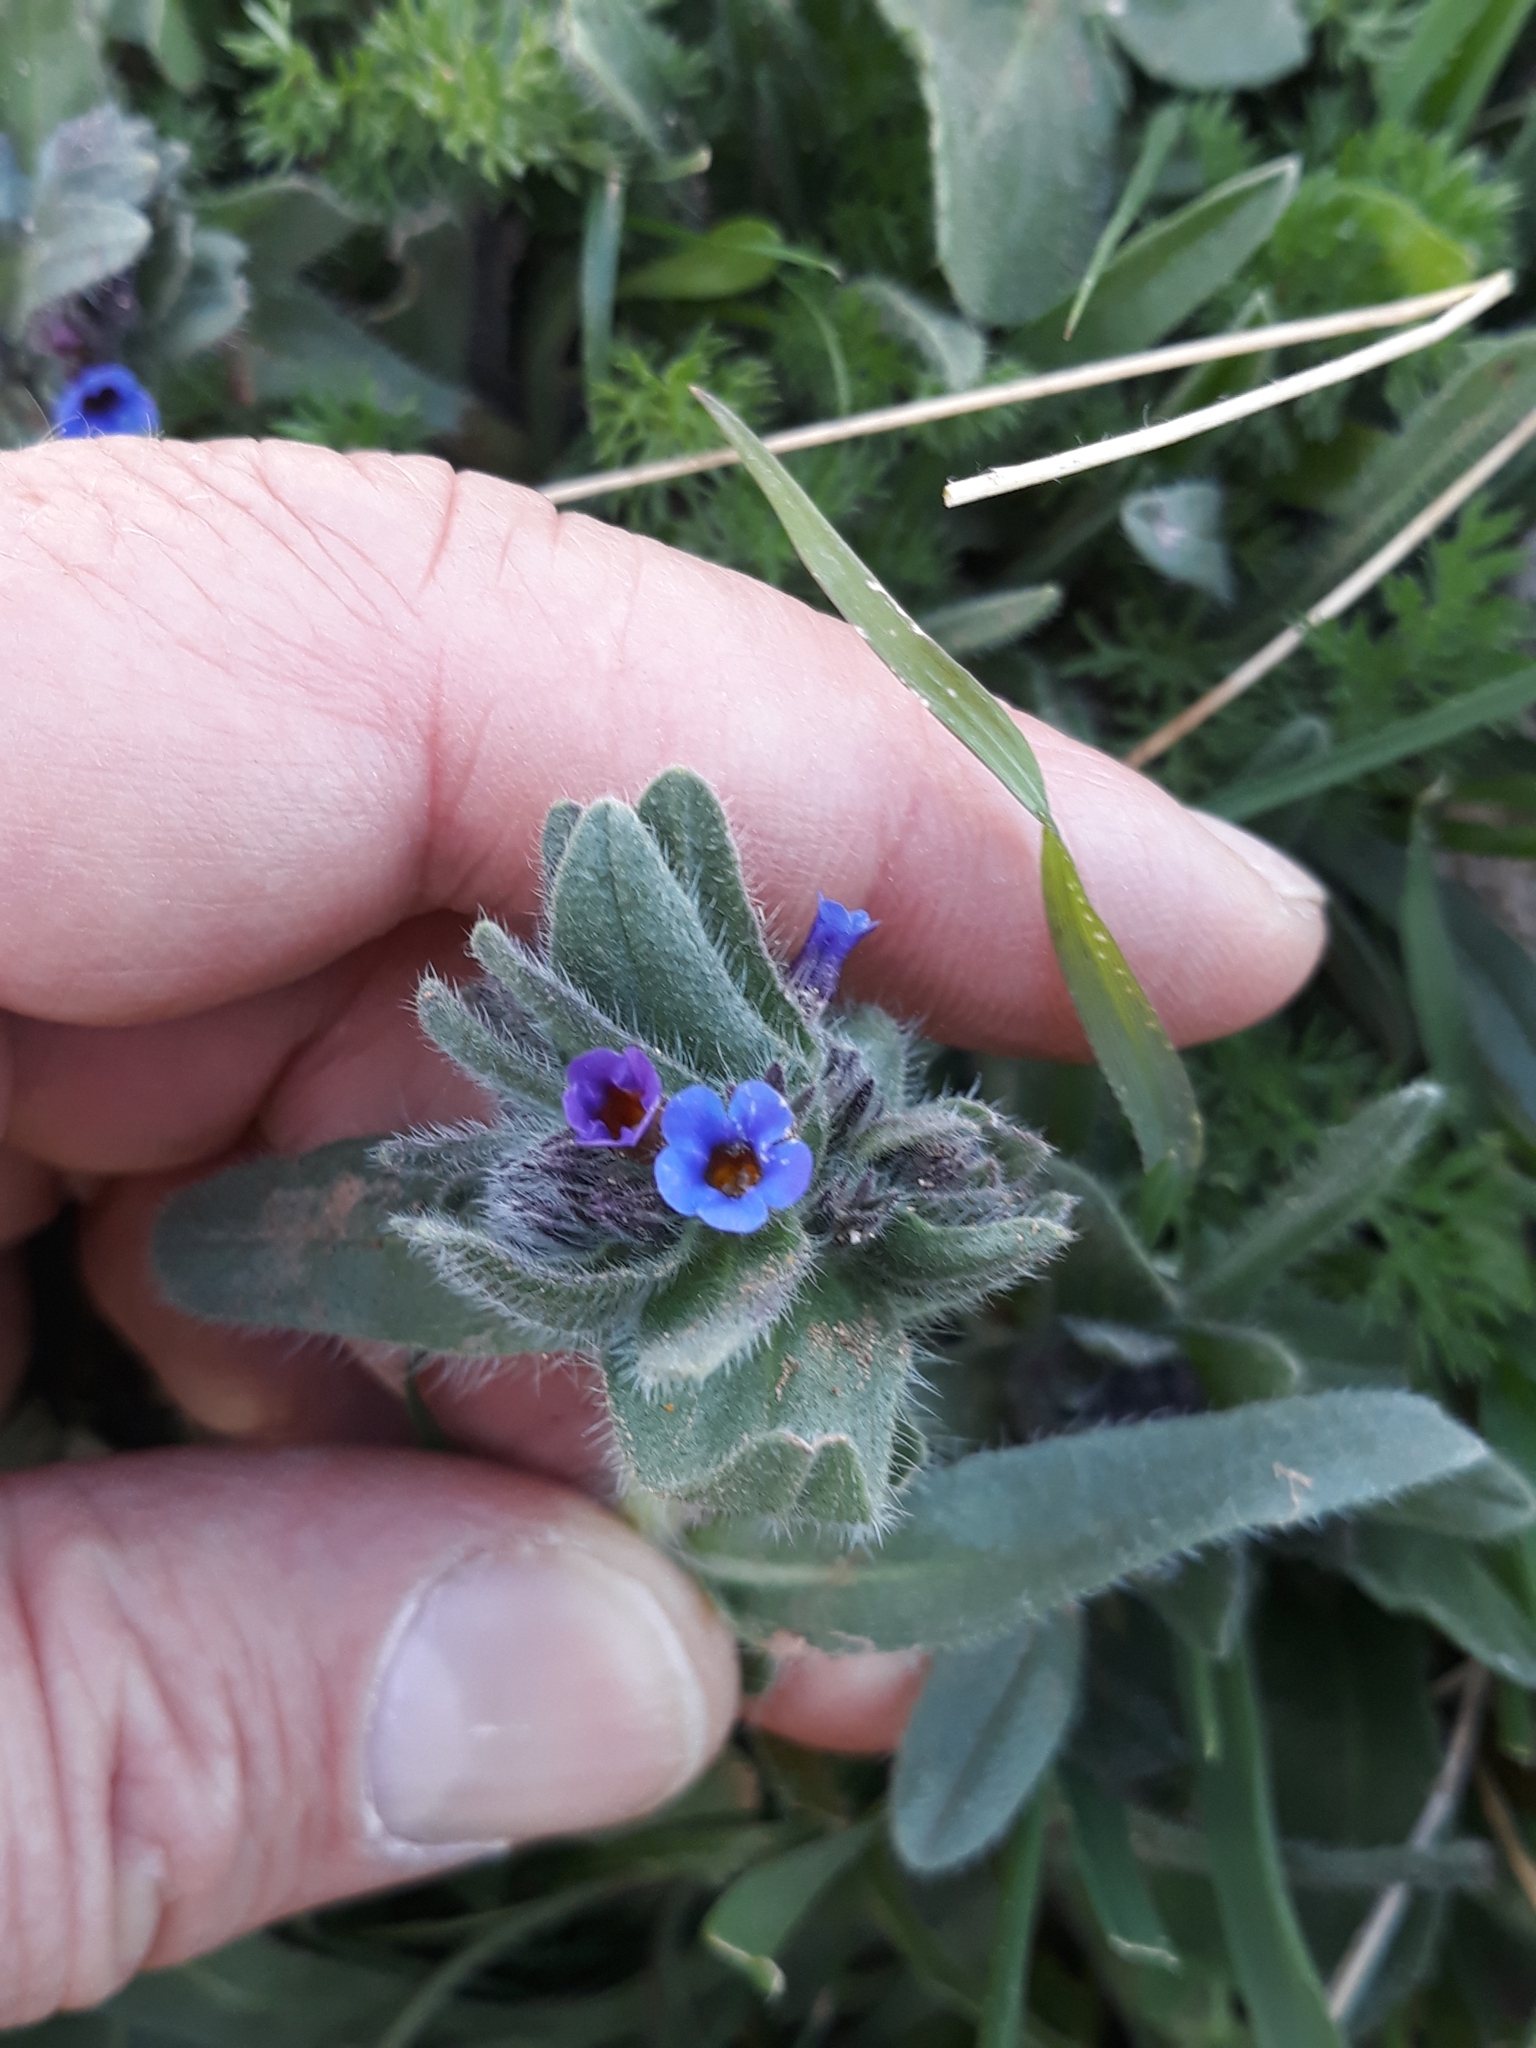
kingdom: Plantae
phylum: Tracheophyta
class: Magnoliopsida
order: Boraginales
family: Boraginaceae
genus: Alkanna
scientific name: Alkanna tinctoria
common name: Dyer's-alkanet
